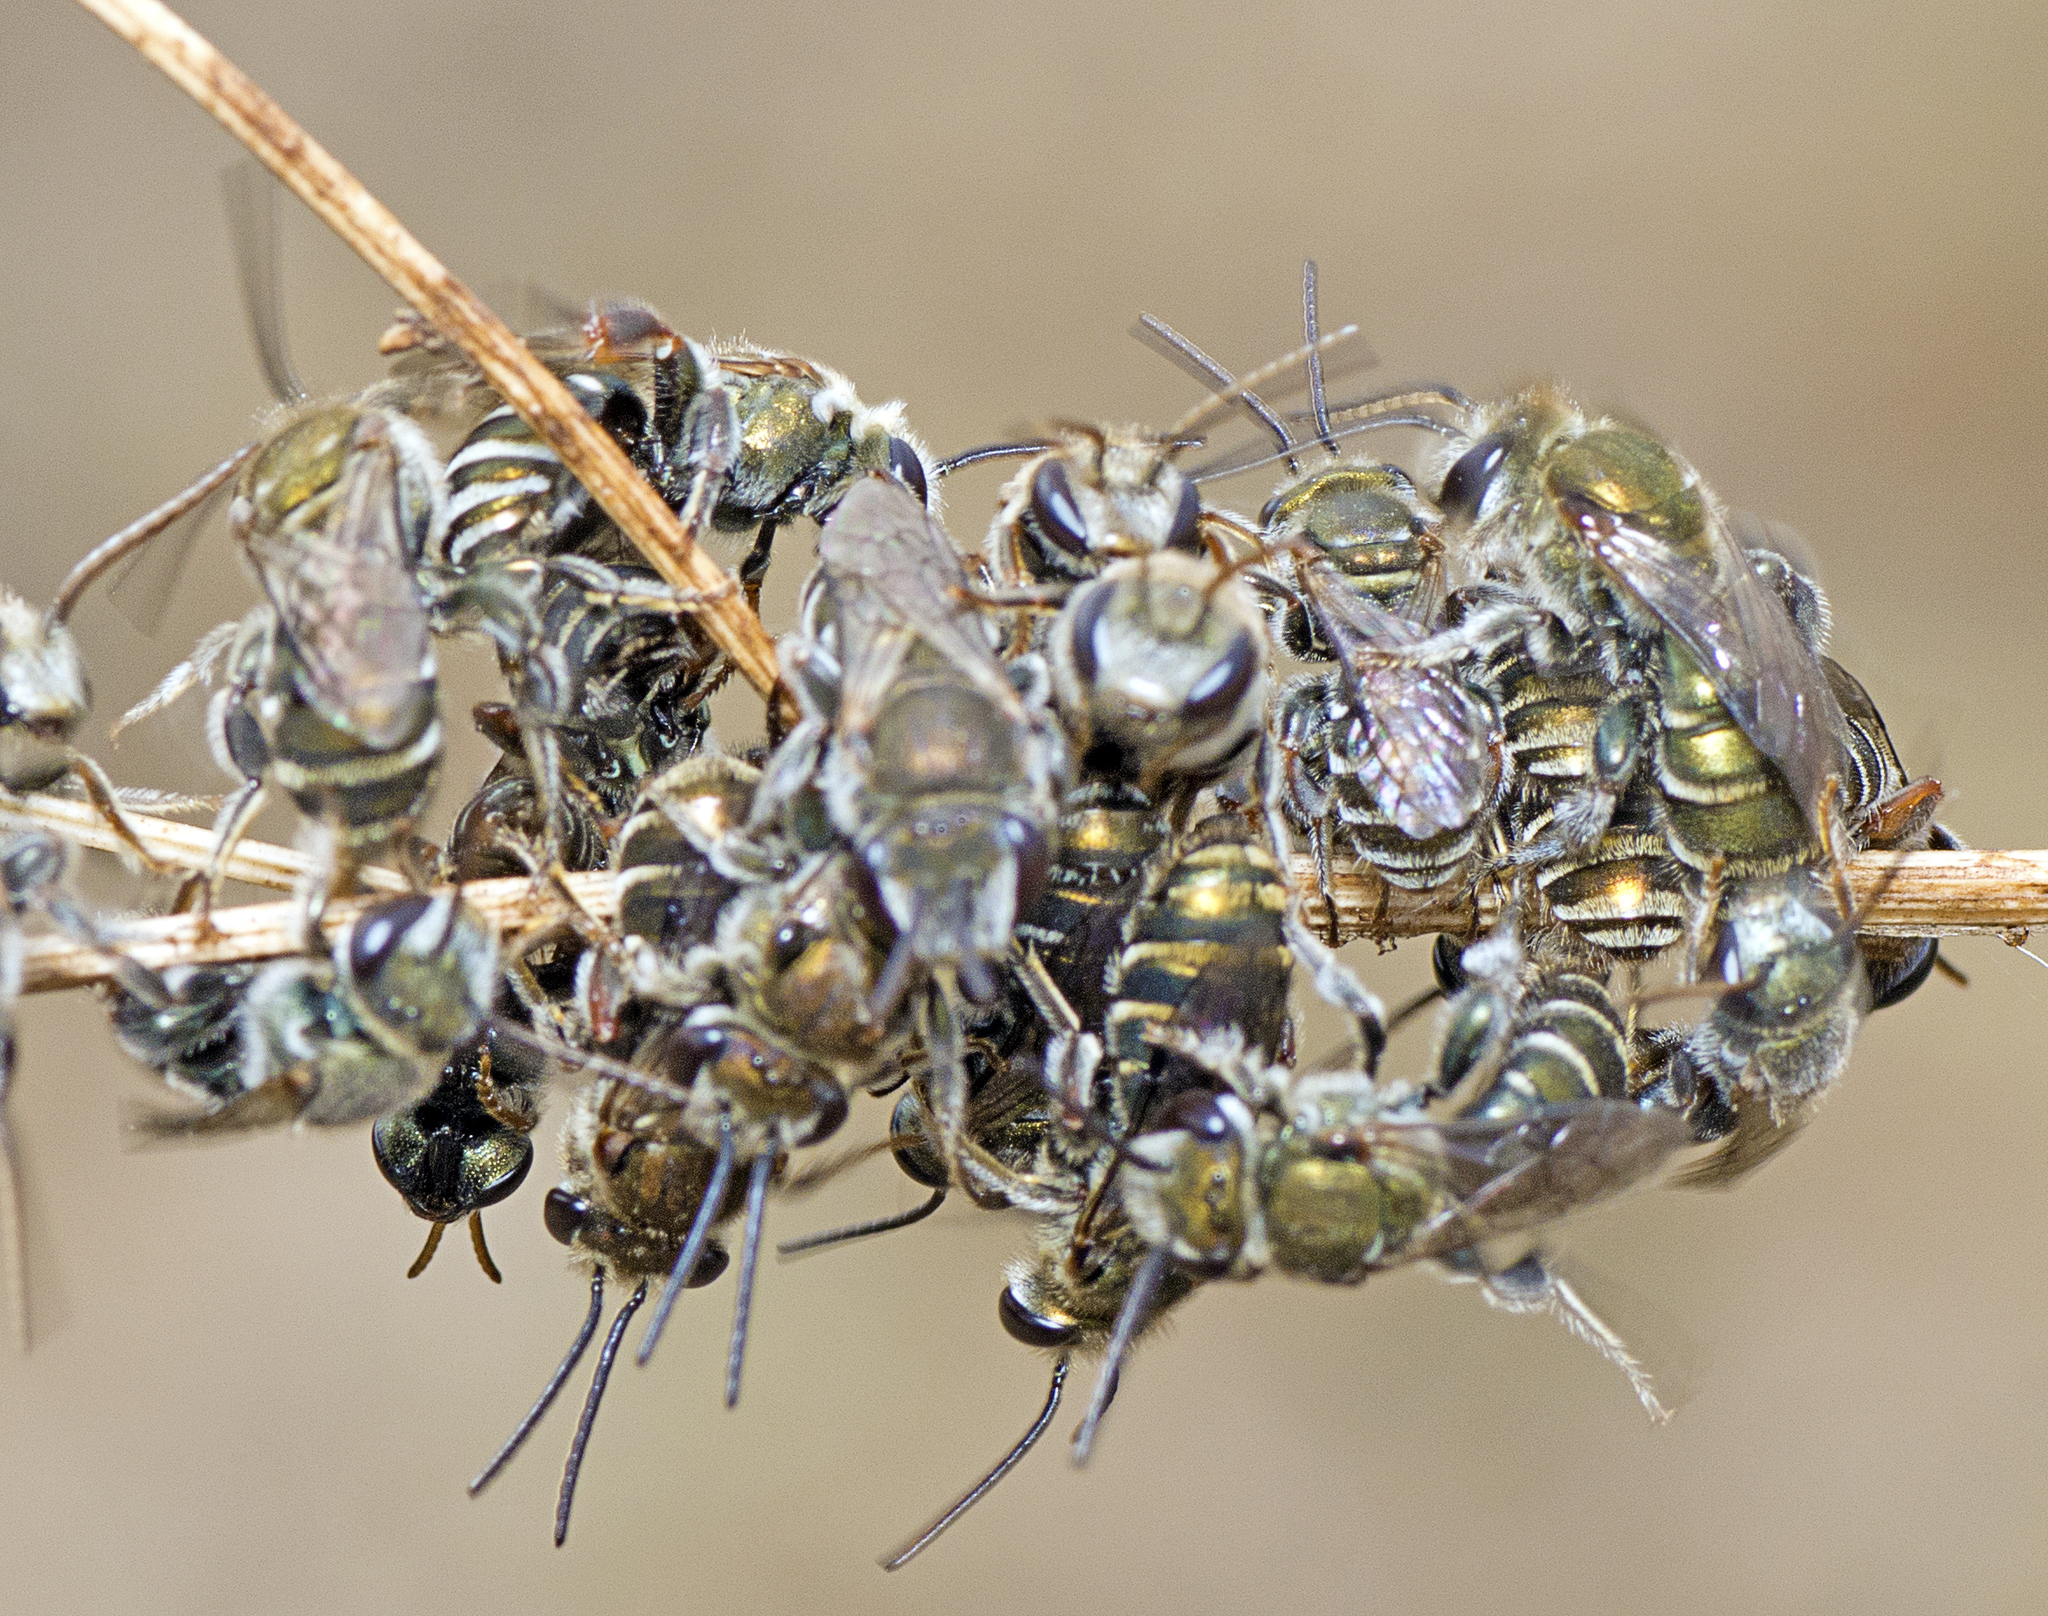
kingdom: Animalia
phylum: Arthropoda
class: Insecta
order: Hymenoptera
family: Halictidae
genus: Lipotriches
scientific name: Lipotriches flavoviridis
